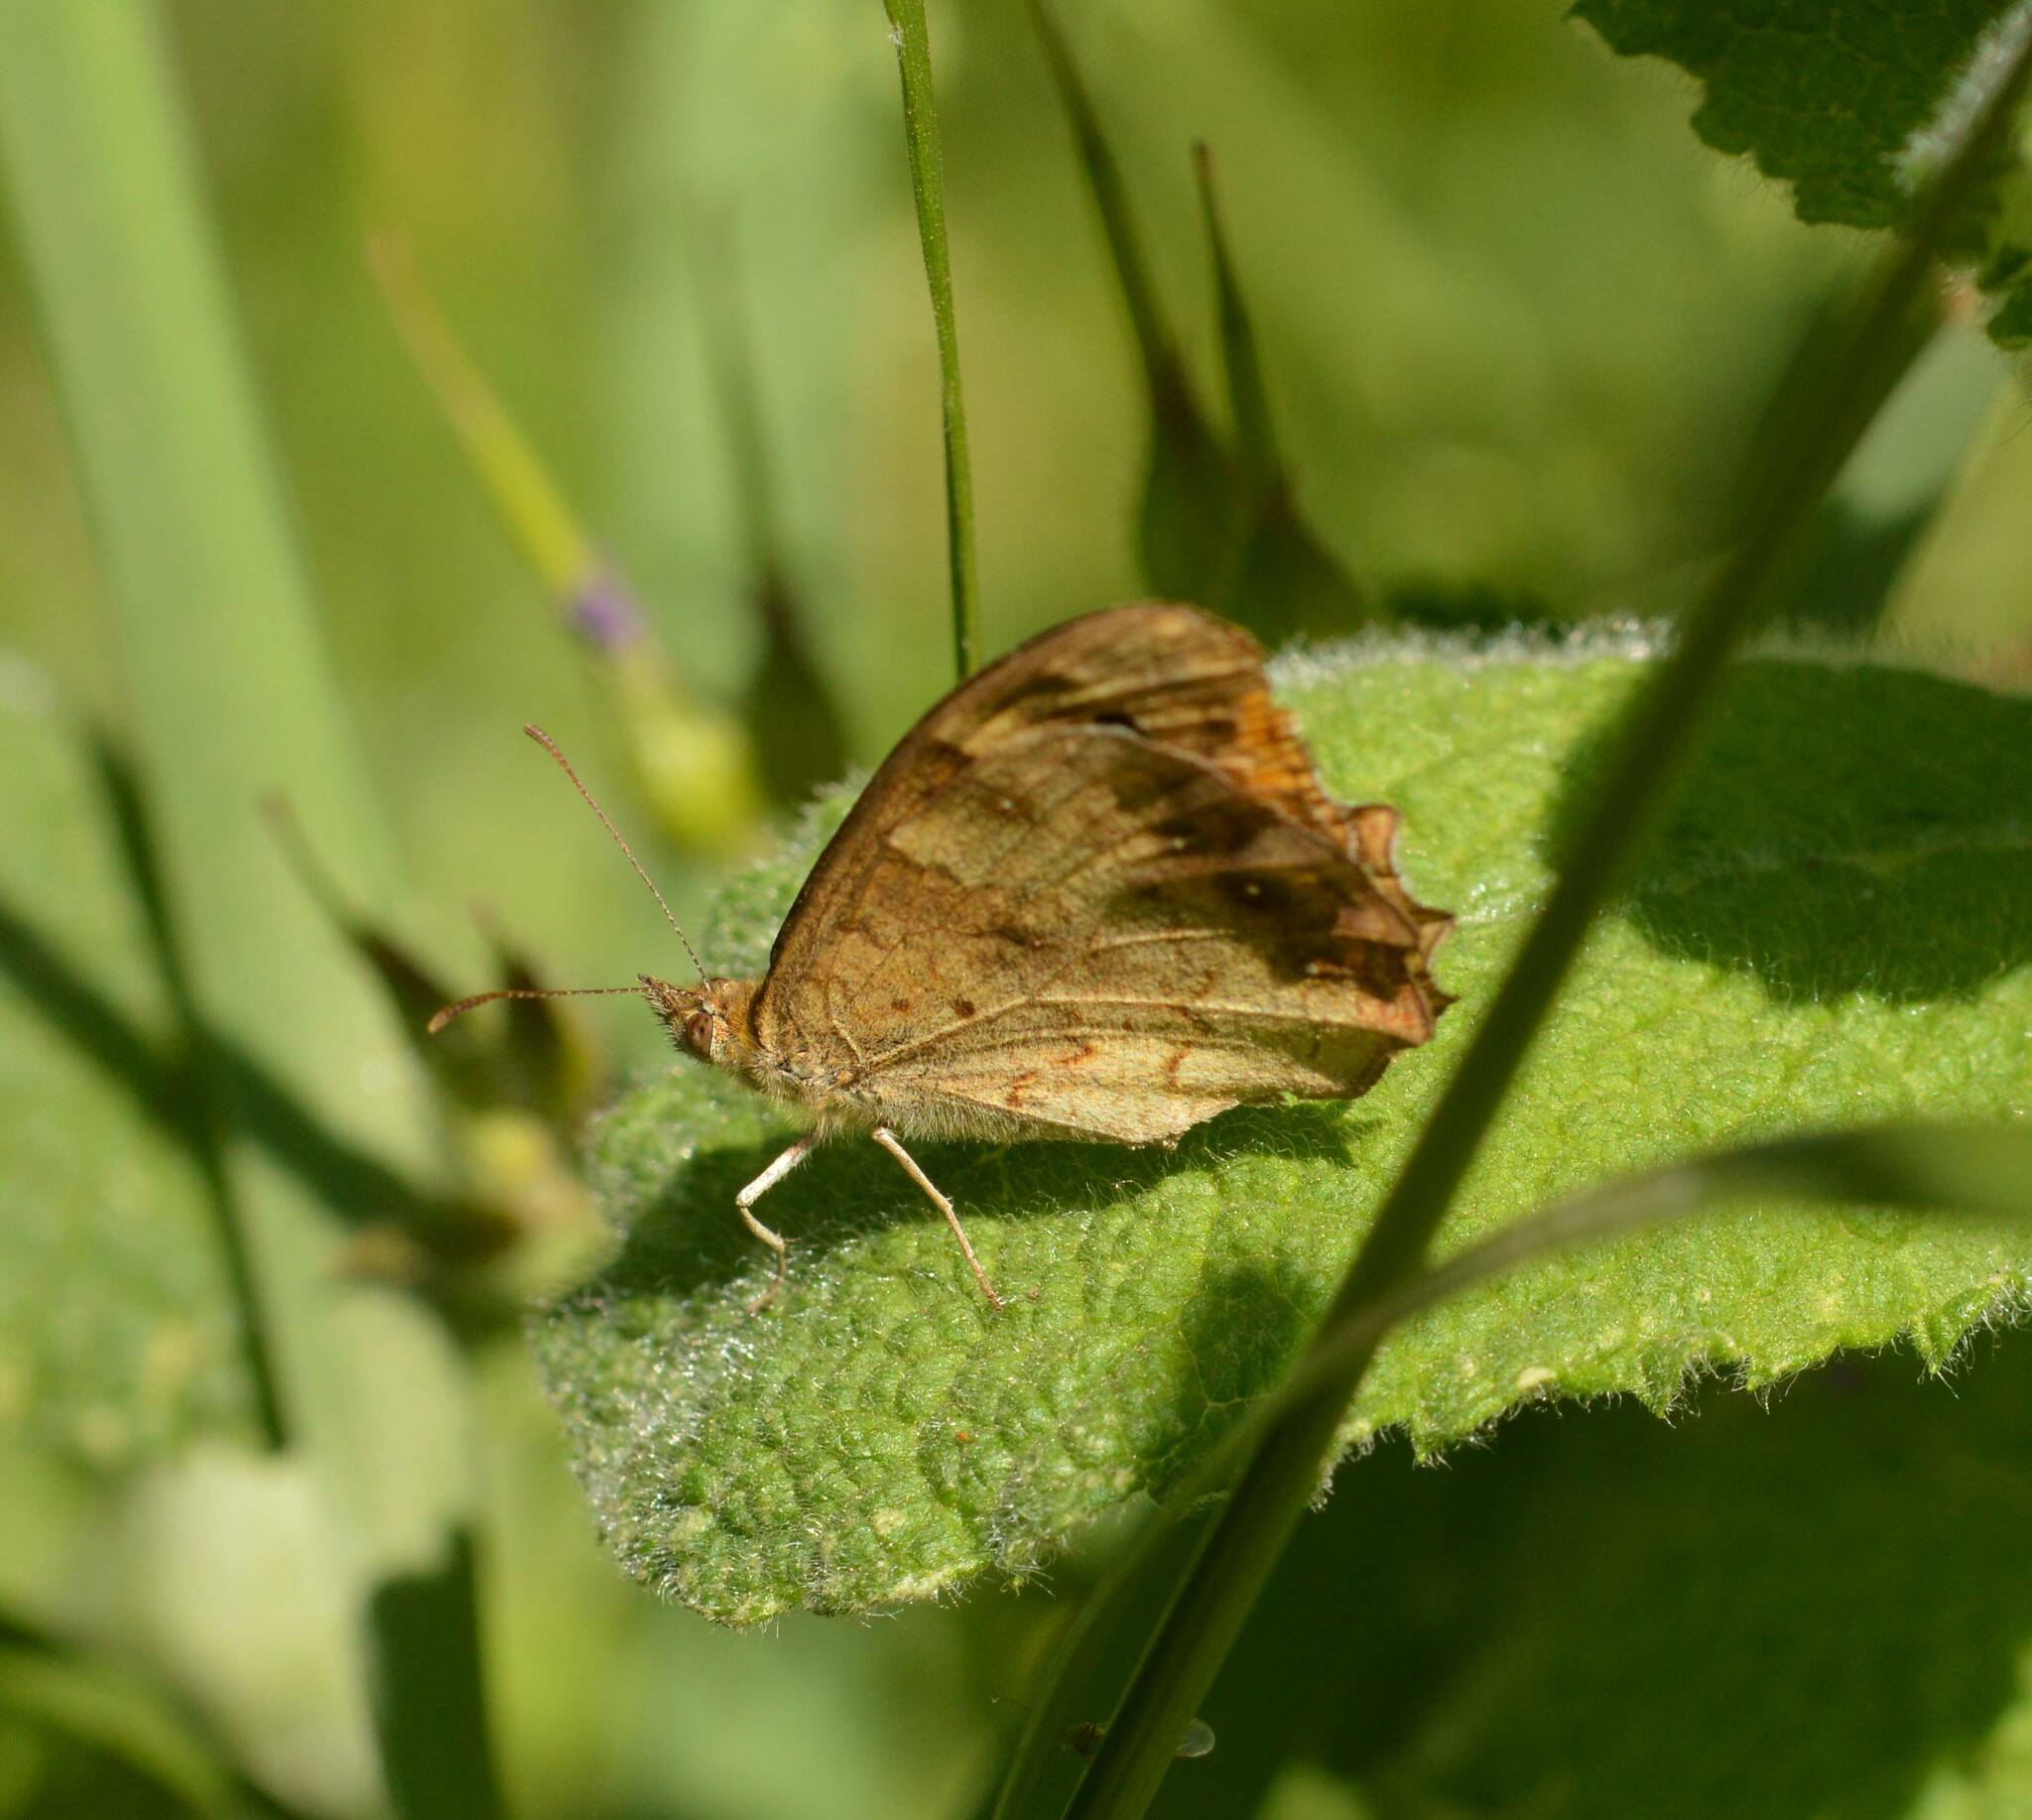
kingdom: Animalia
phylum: Arthropoda
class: Insecta
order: Lepidoptera
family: Nymphalidae
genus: Pararge
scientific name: Pararge aegeria
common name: Speckled wood
